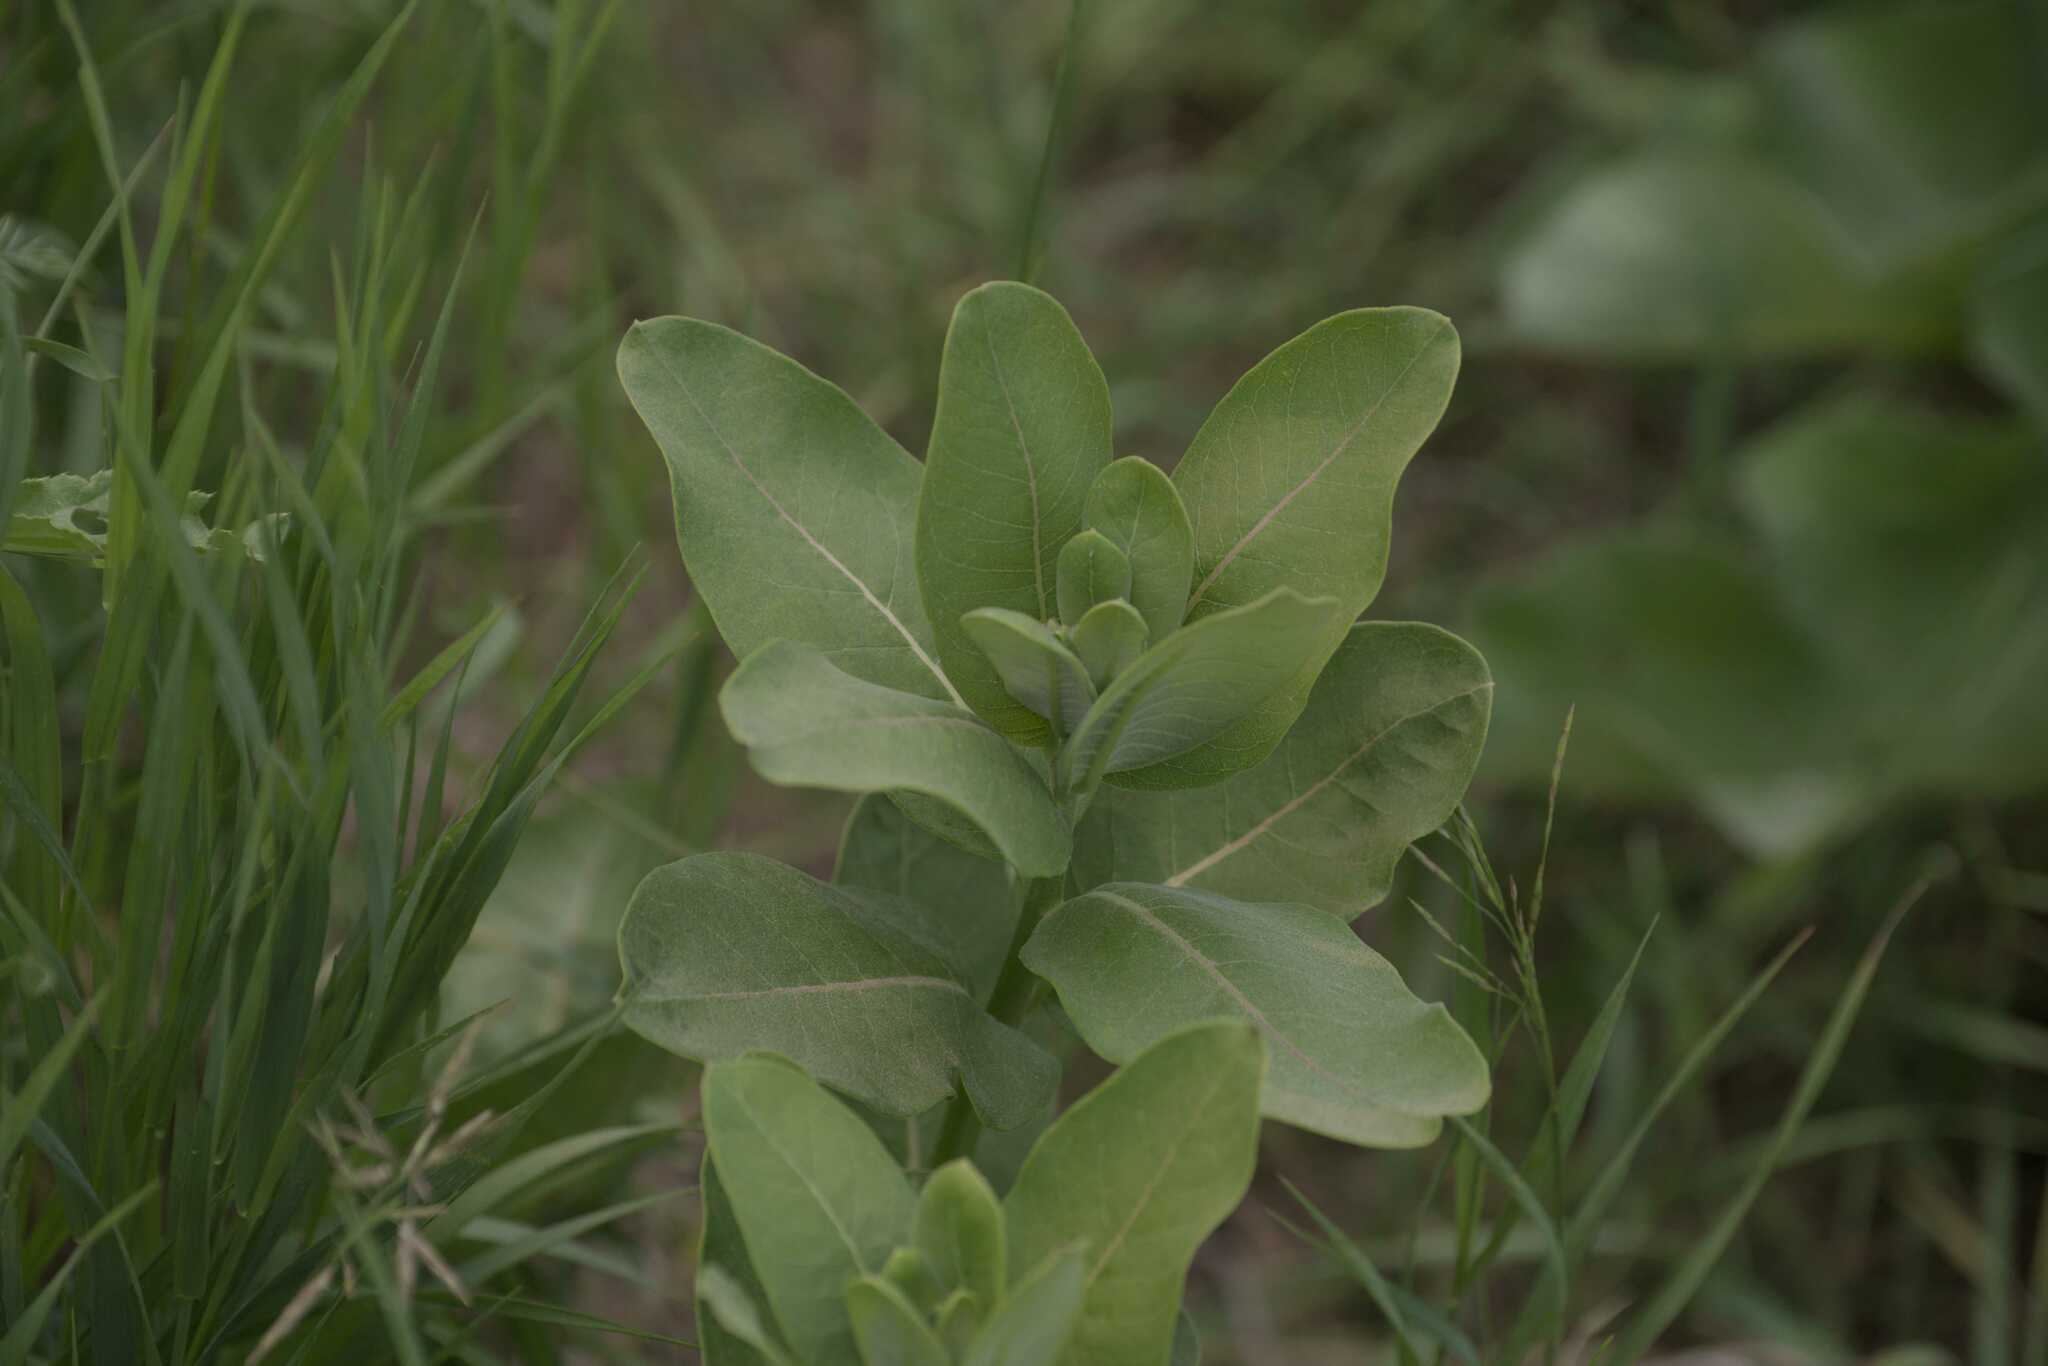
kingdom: Plantae
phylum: Tracheophyta
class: Magnoliopsida
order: Gentianales
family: Apocynaceae
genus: Asclepias
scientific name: Asclepias syriaca
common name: Common milkweed
